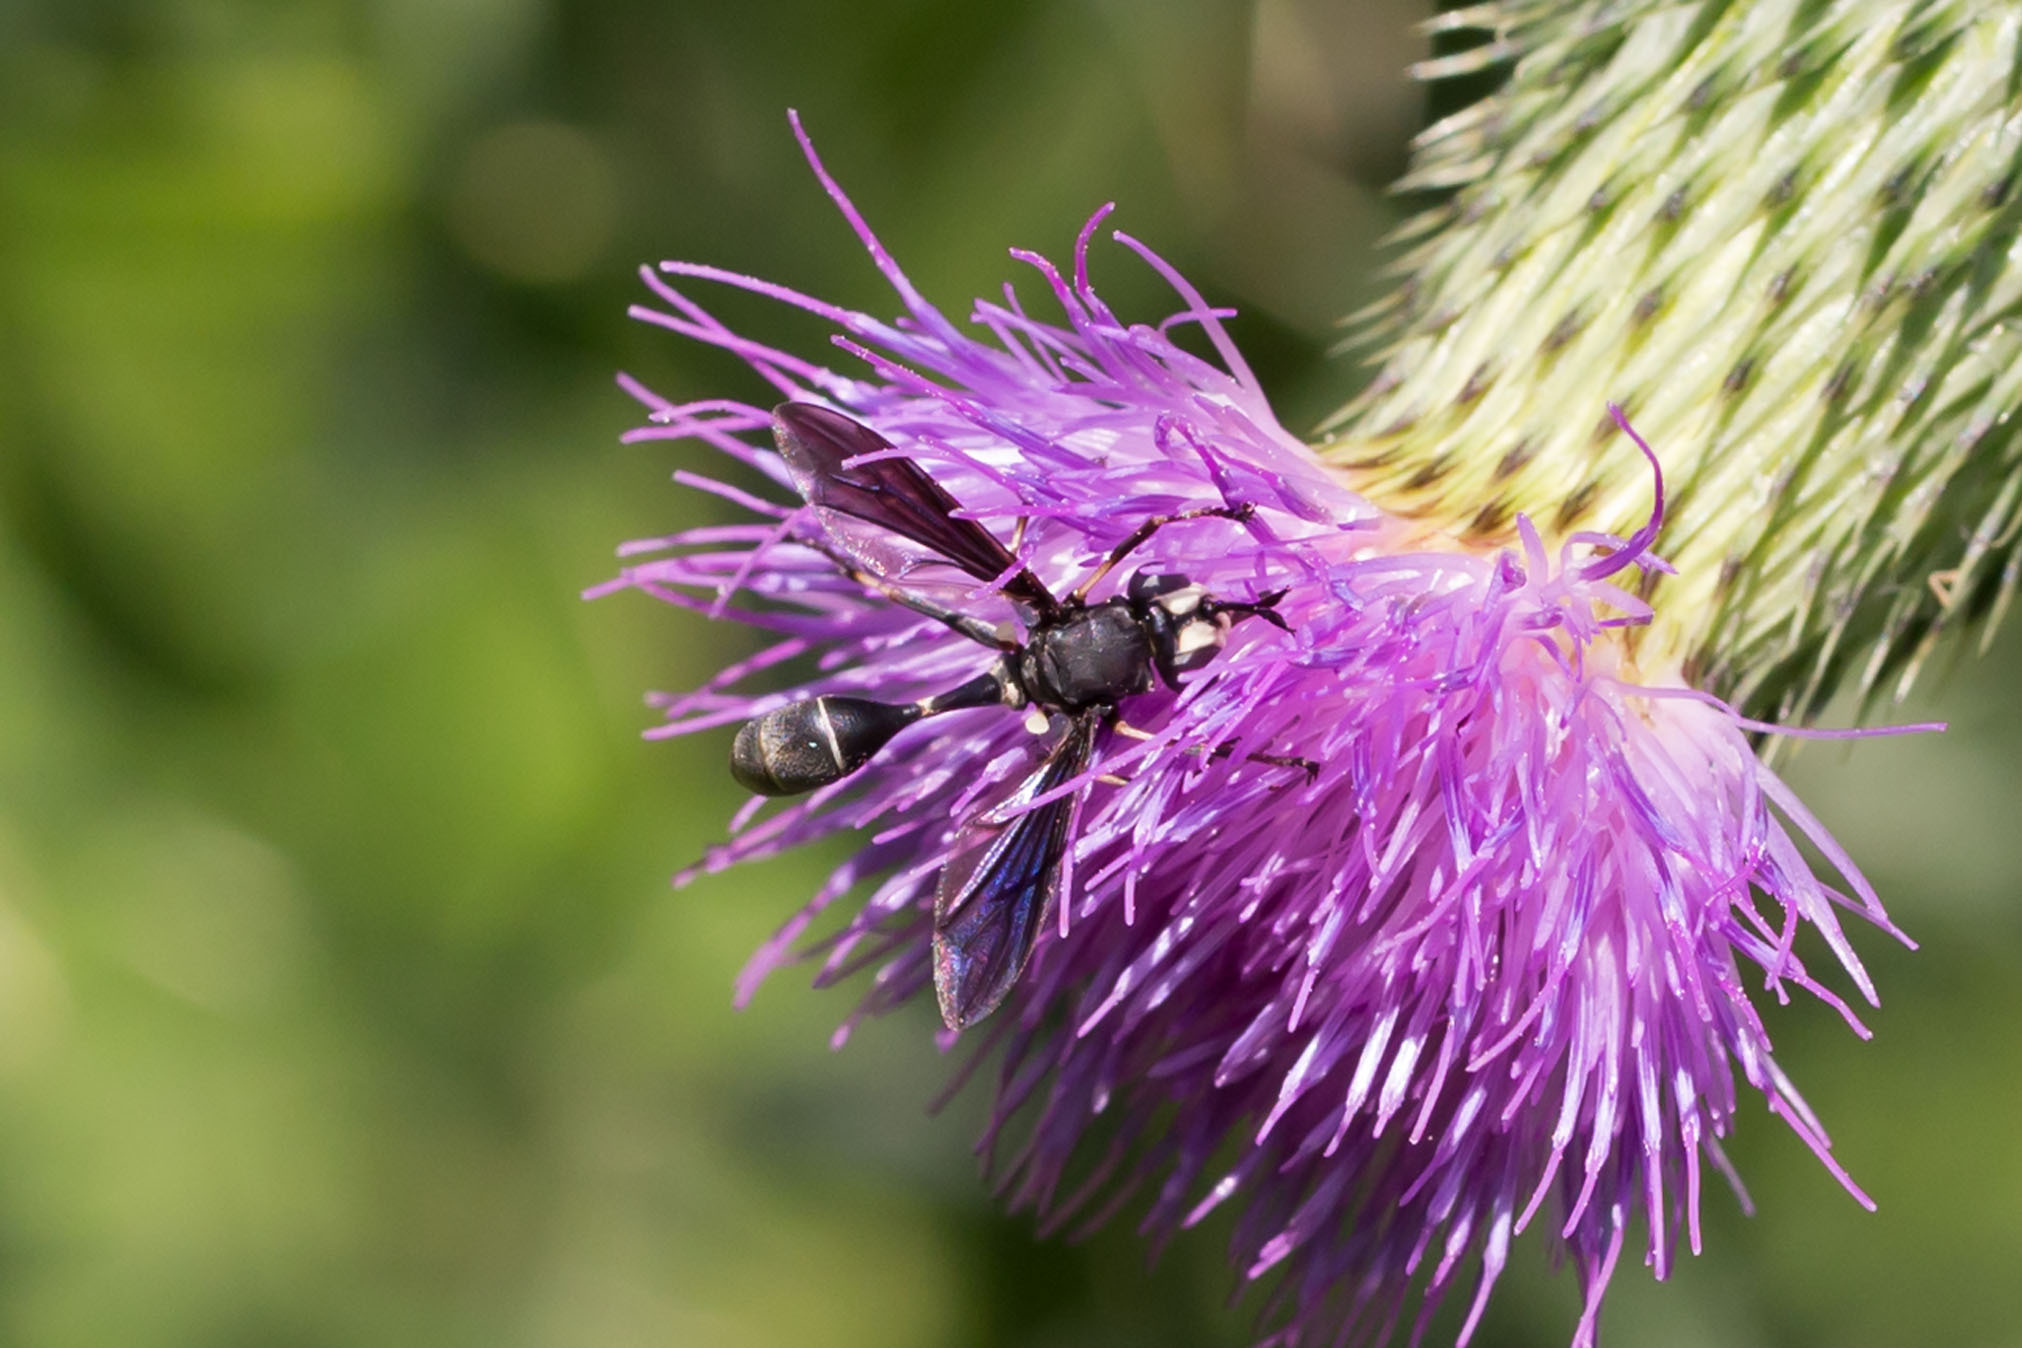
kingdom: Animalia
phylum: Arthropoda
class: Insecta
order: Diptera
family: Conopidae
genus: Physocephala
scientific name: Physocephala tibialis
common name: Common eastern physocephala
